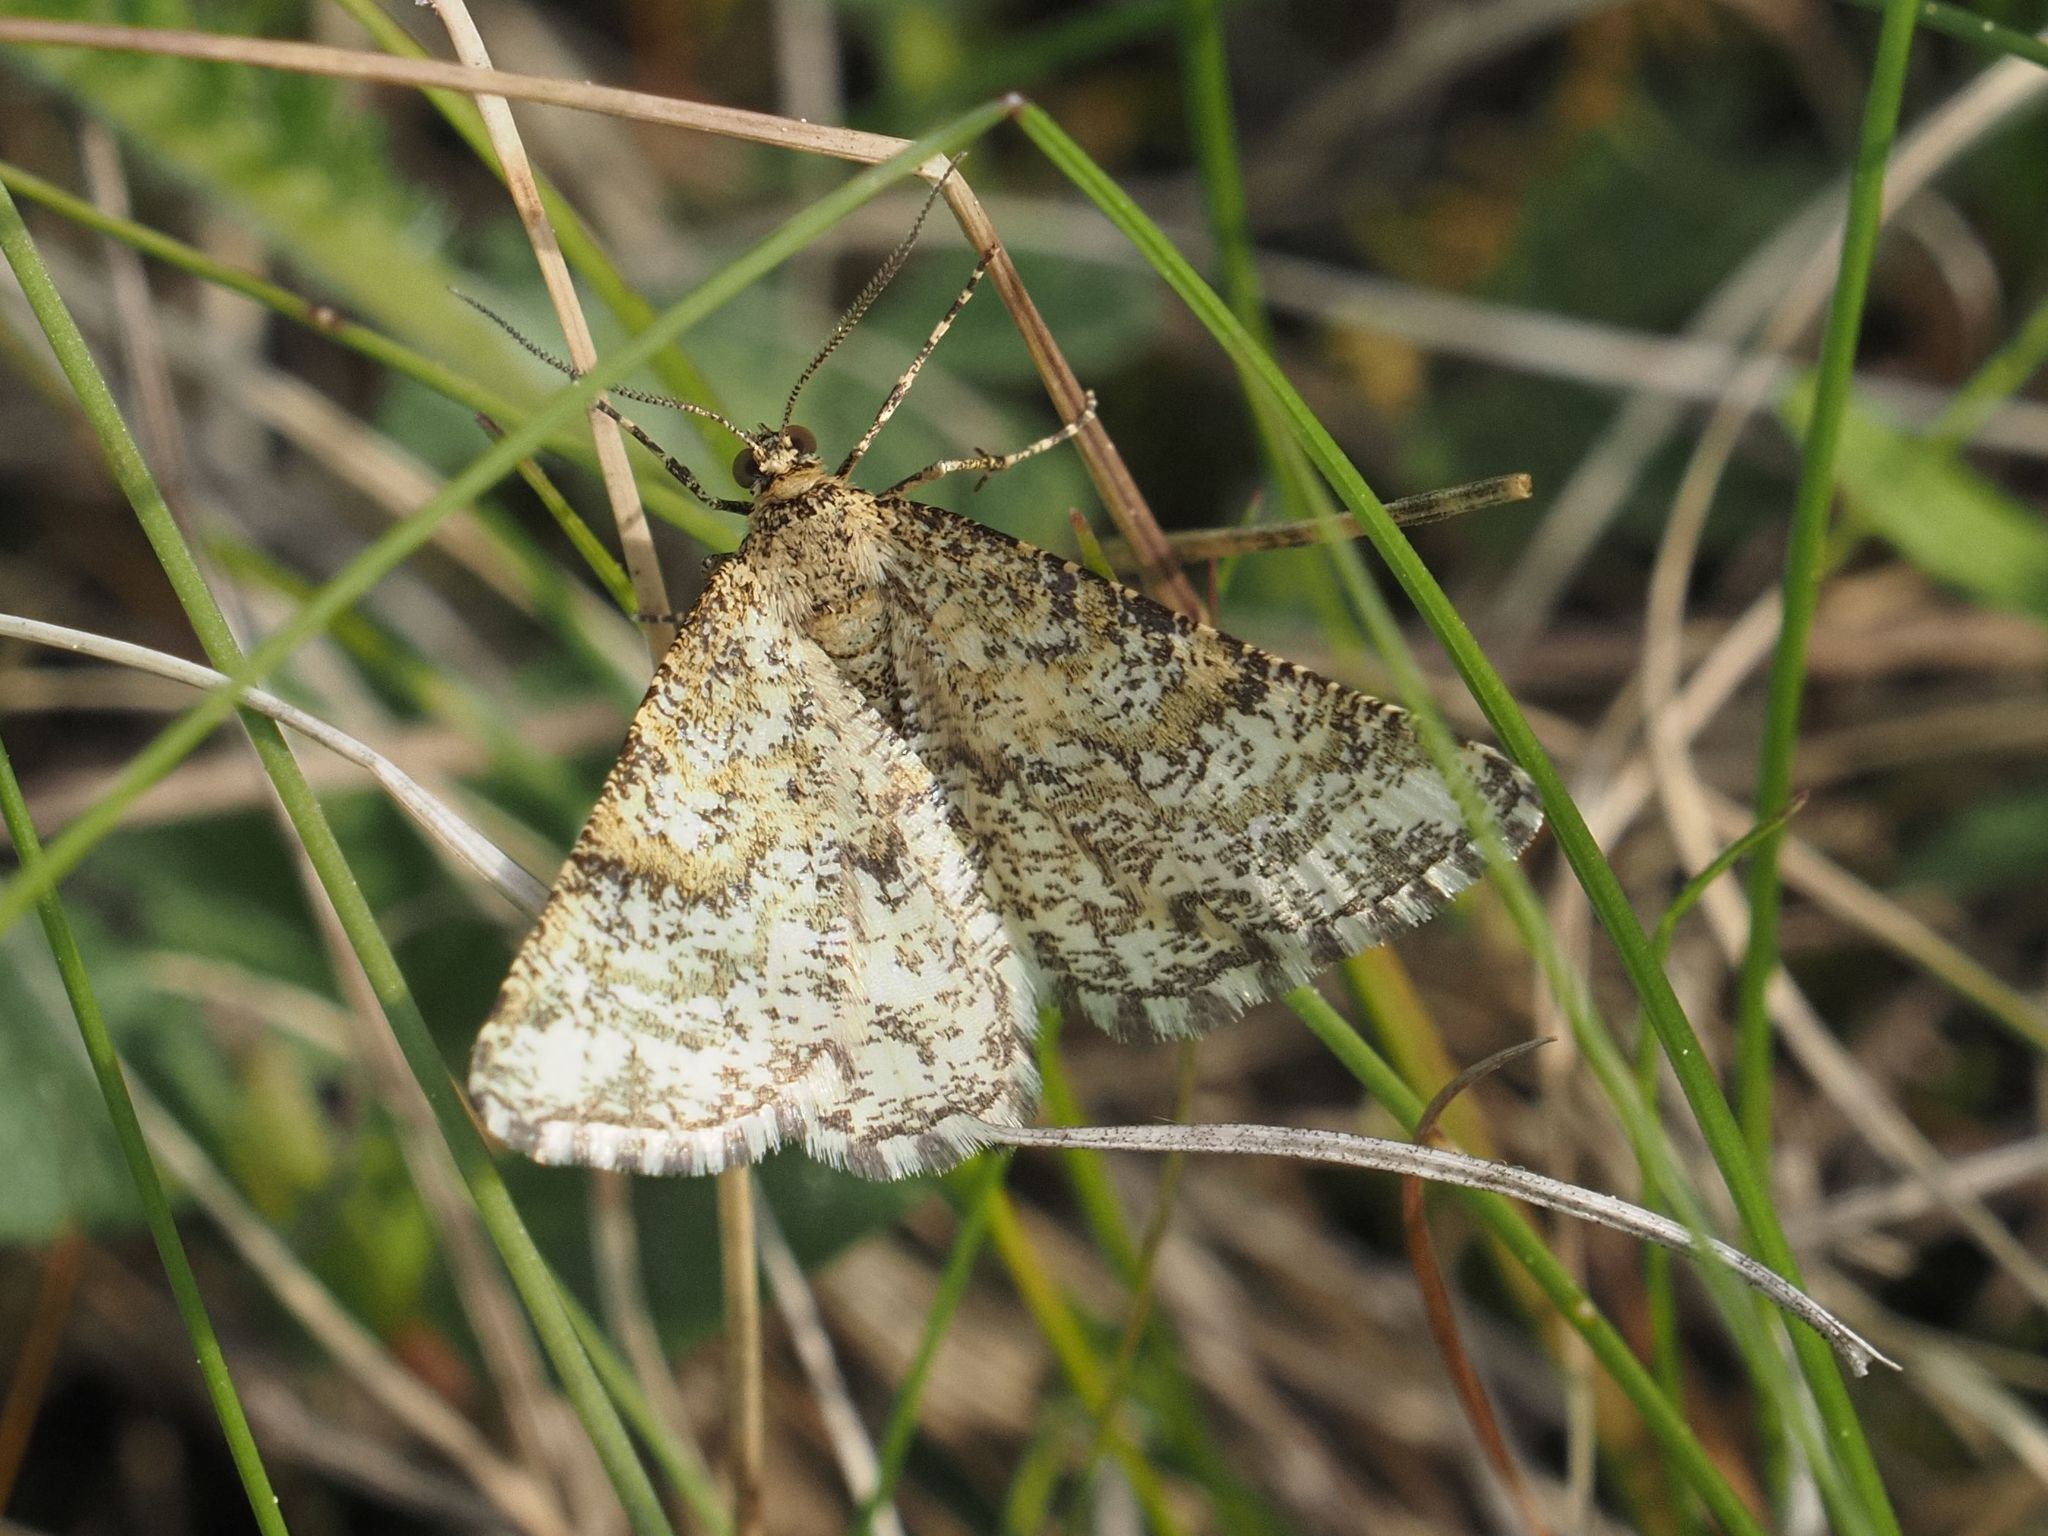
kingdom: Animalia
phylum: Arthropoda
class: Insecta
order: Lepidoptera
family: Geometridae
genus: Heliomata
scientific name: Heliomata glarearia
